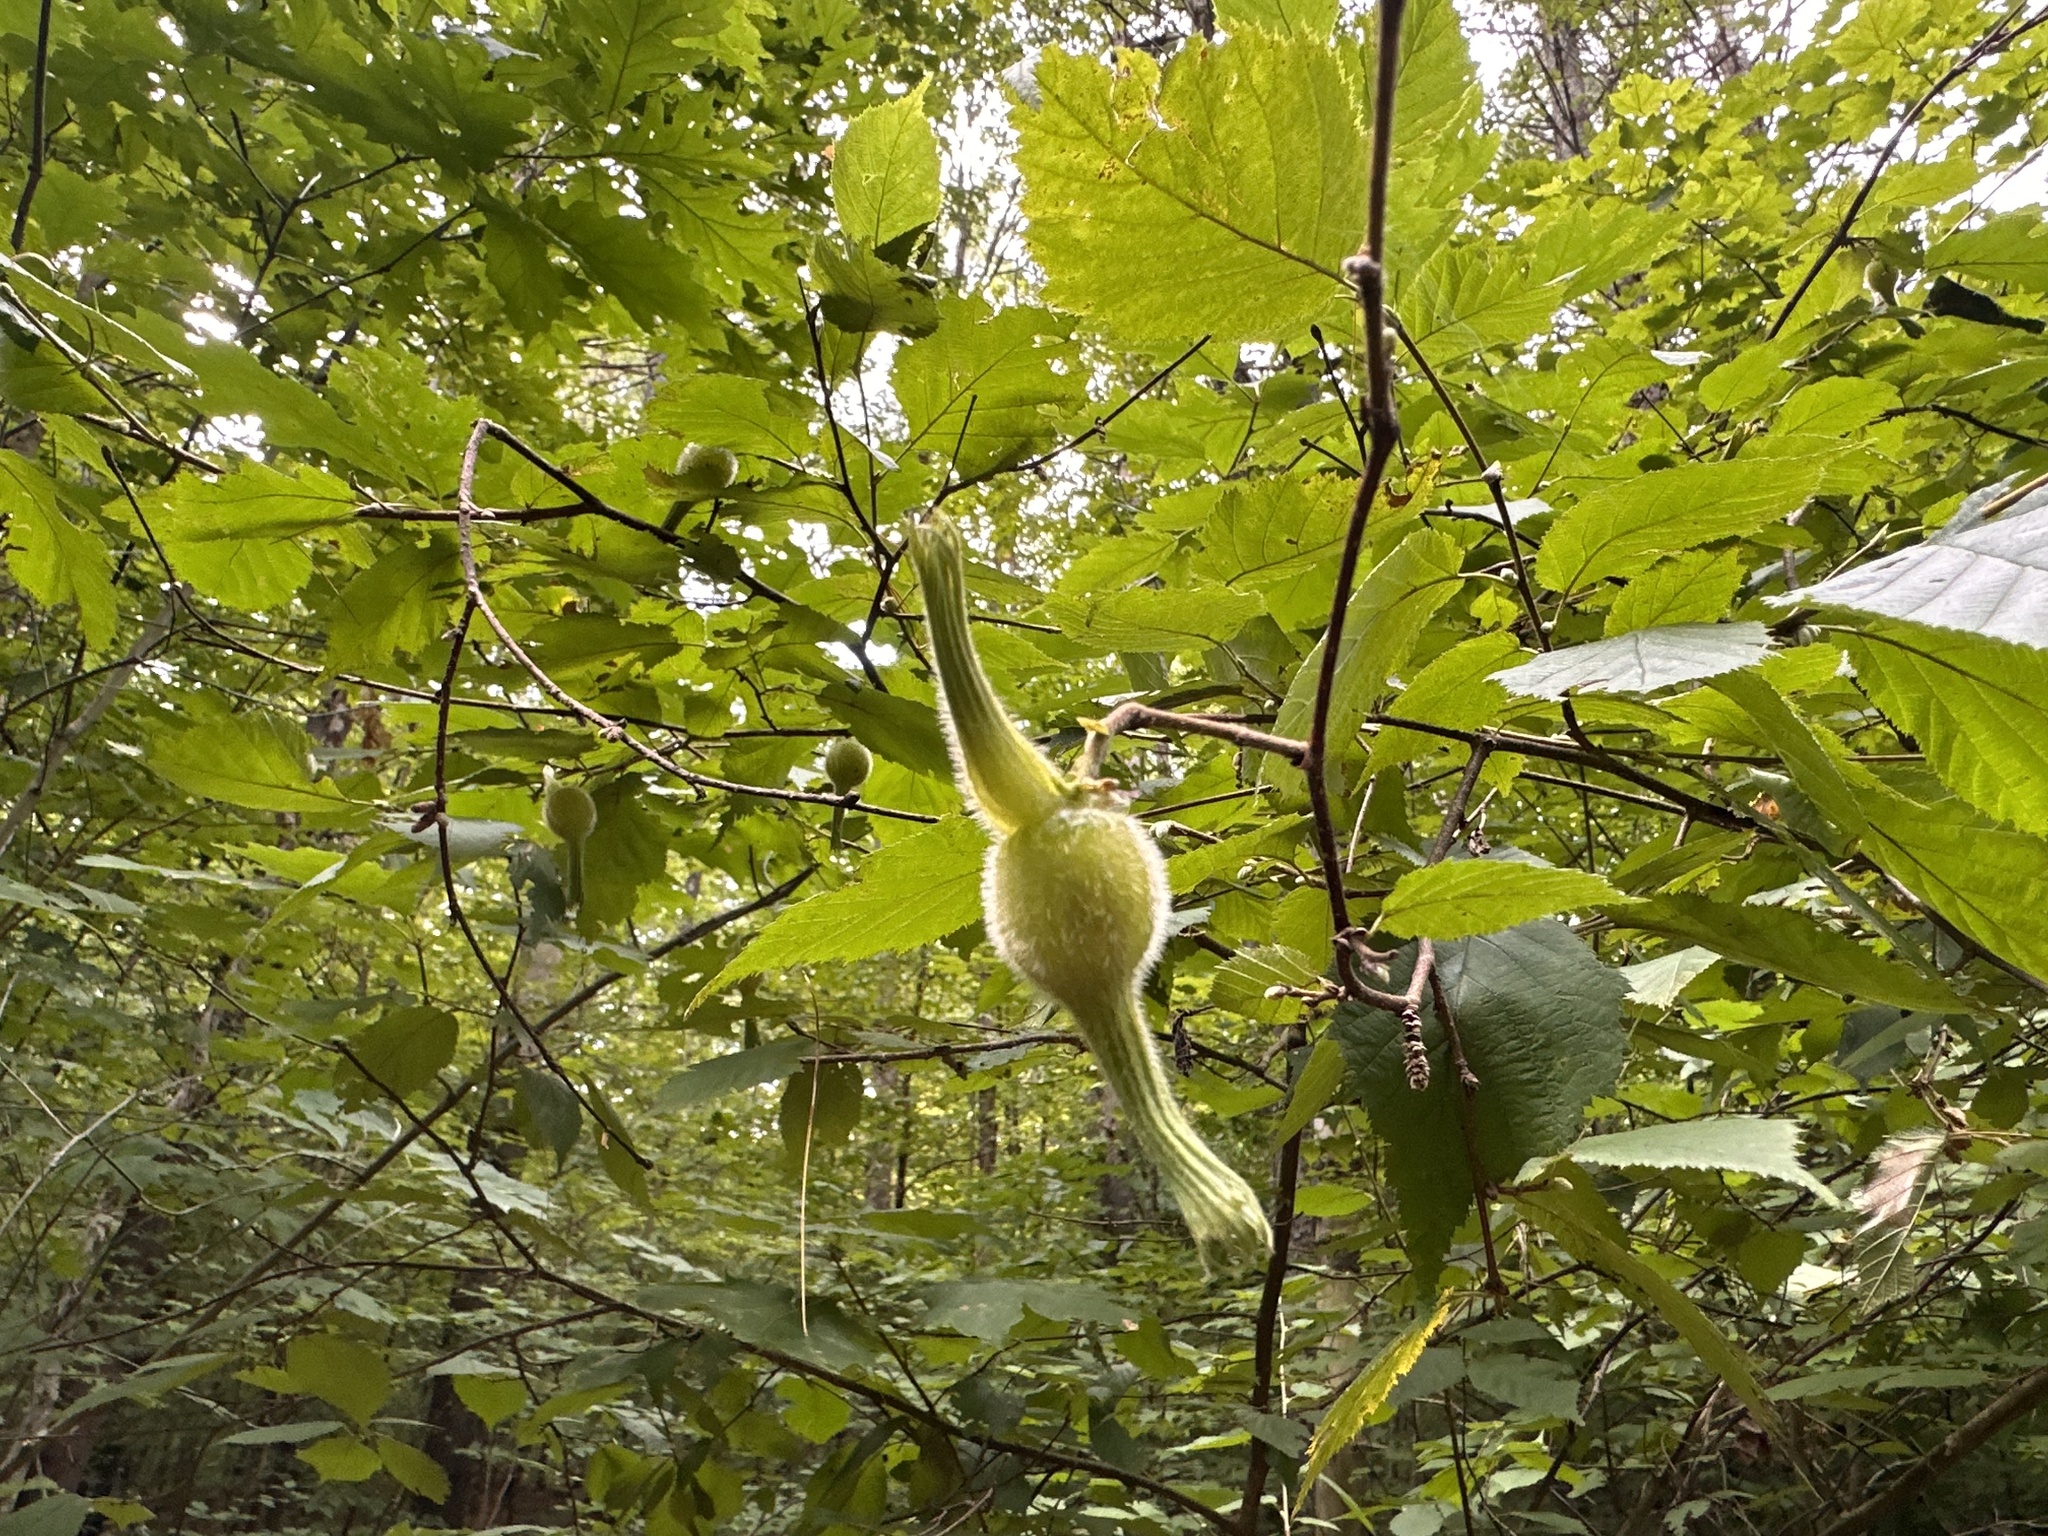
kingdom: Plantae
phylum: Tracheophyta
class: Magnoliopsida
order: Fagales
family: Betulaceae
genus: Corylus
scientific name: Corylus cornuta
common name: Beaked hazel
